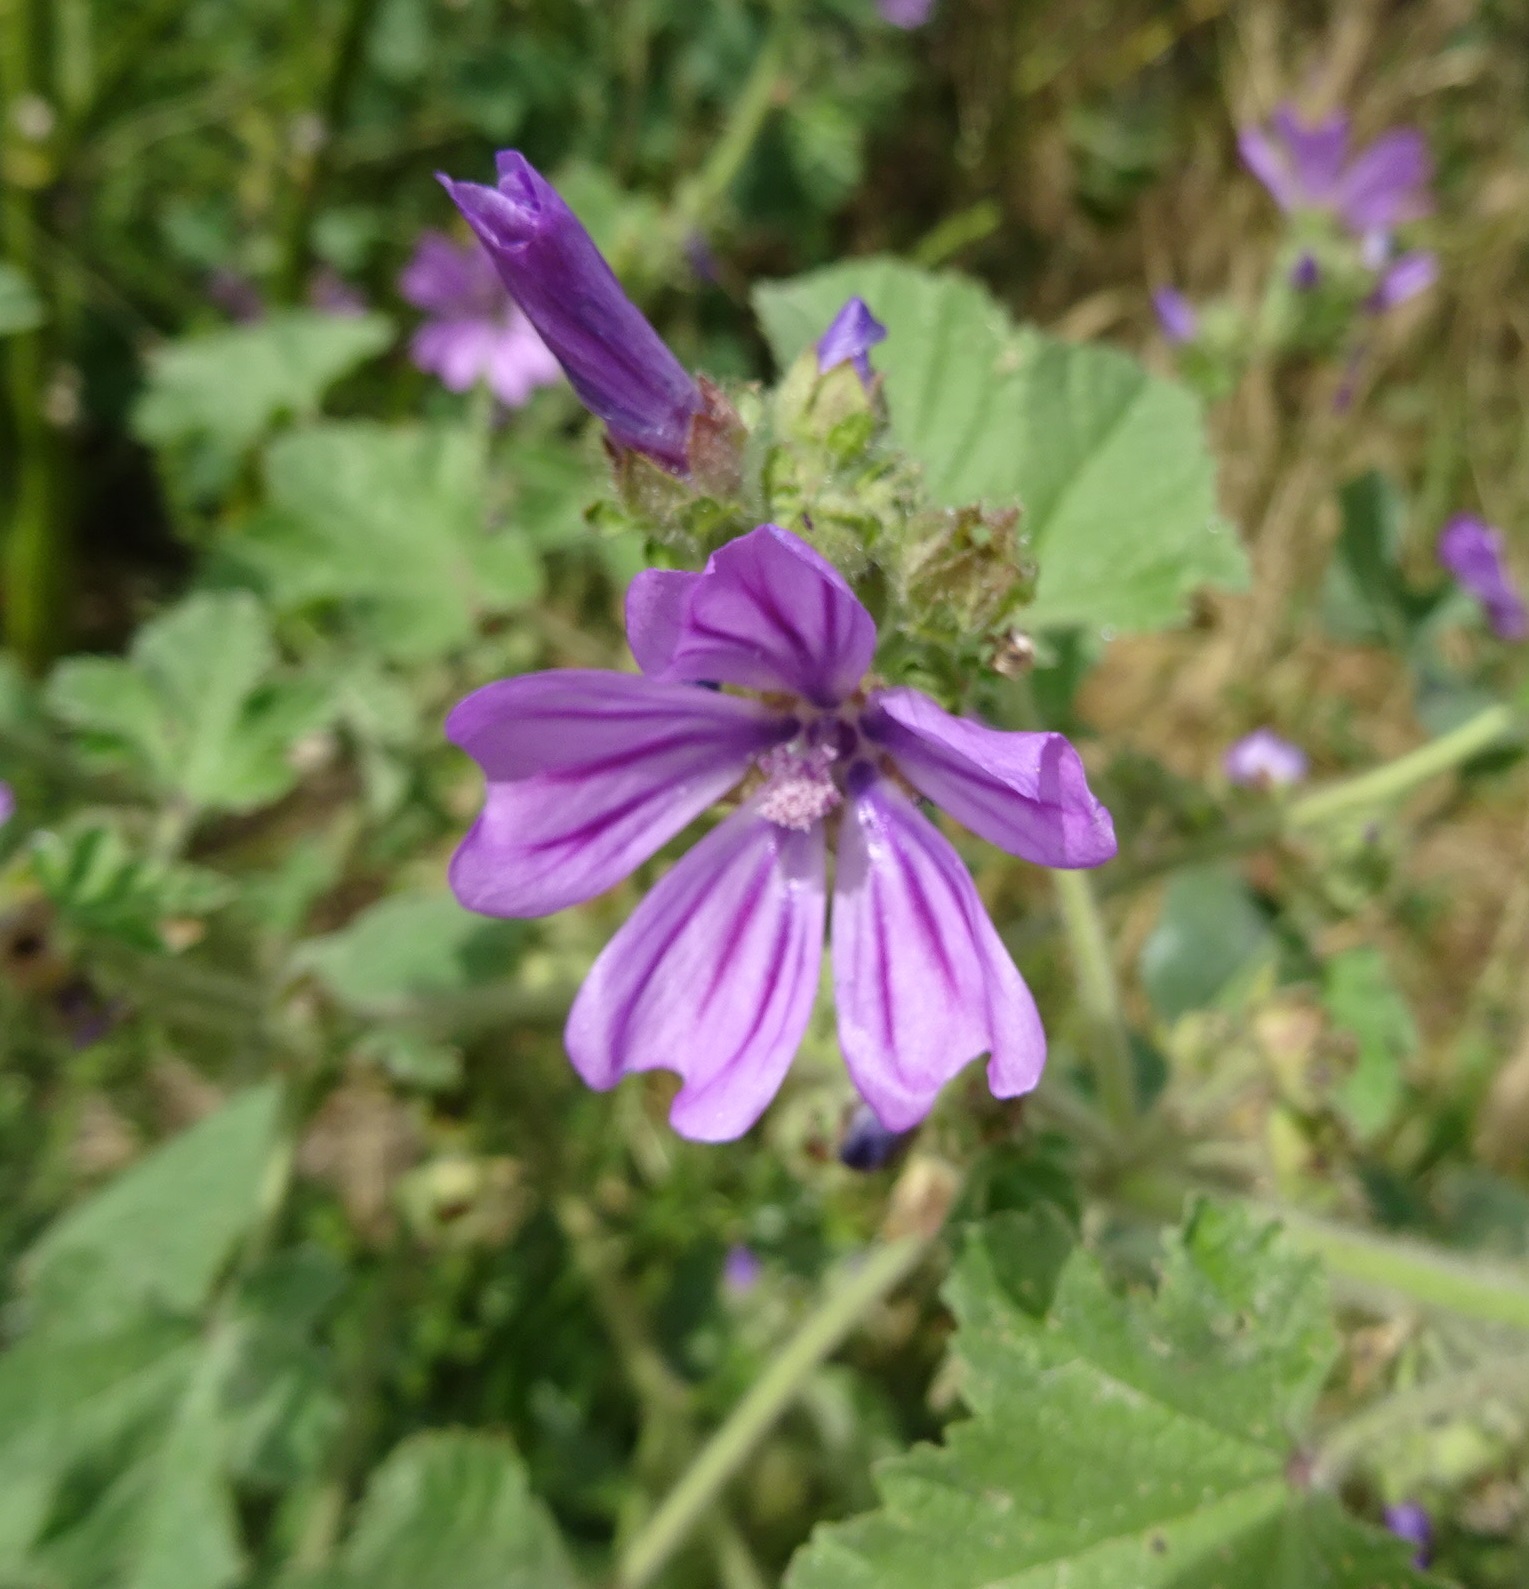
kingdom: Plantae
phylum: Tracheophyta
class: Magnoliopsida
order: Malvales
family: Malvaceae
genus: Malva
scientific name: Malva sylvestris
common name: Common mallow
